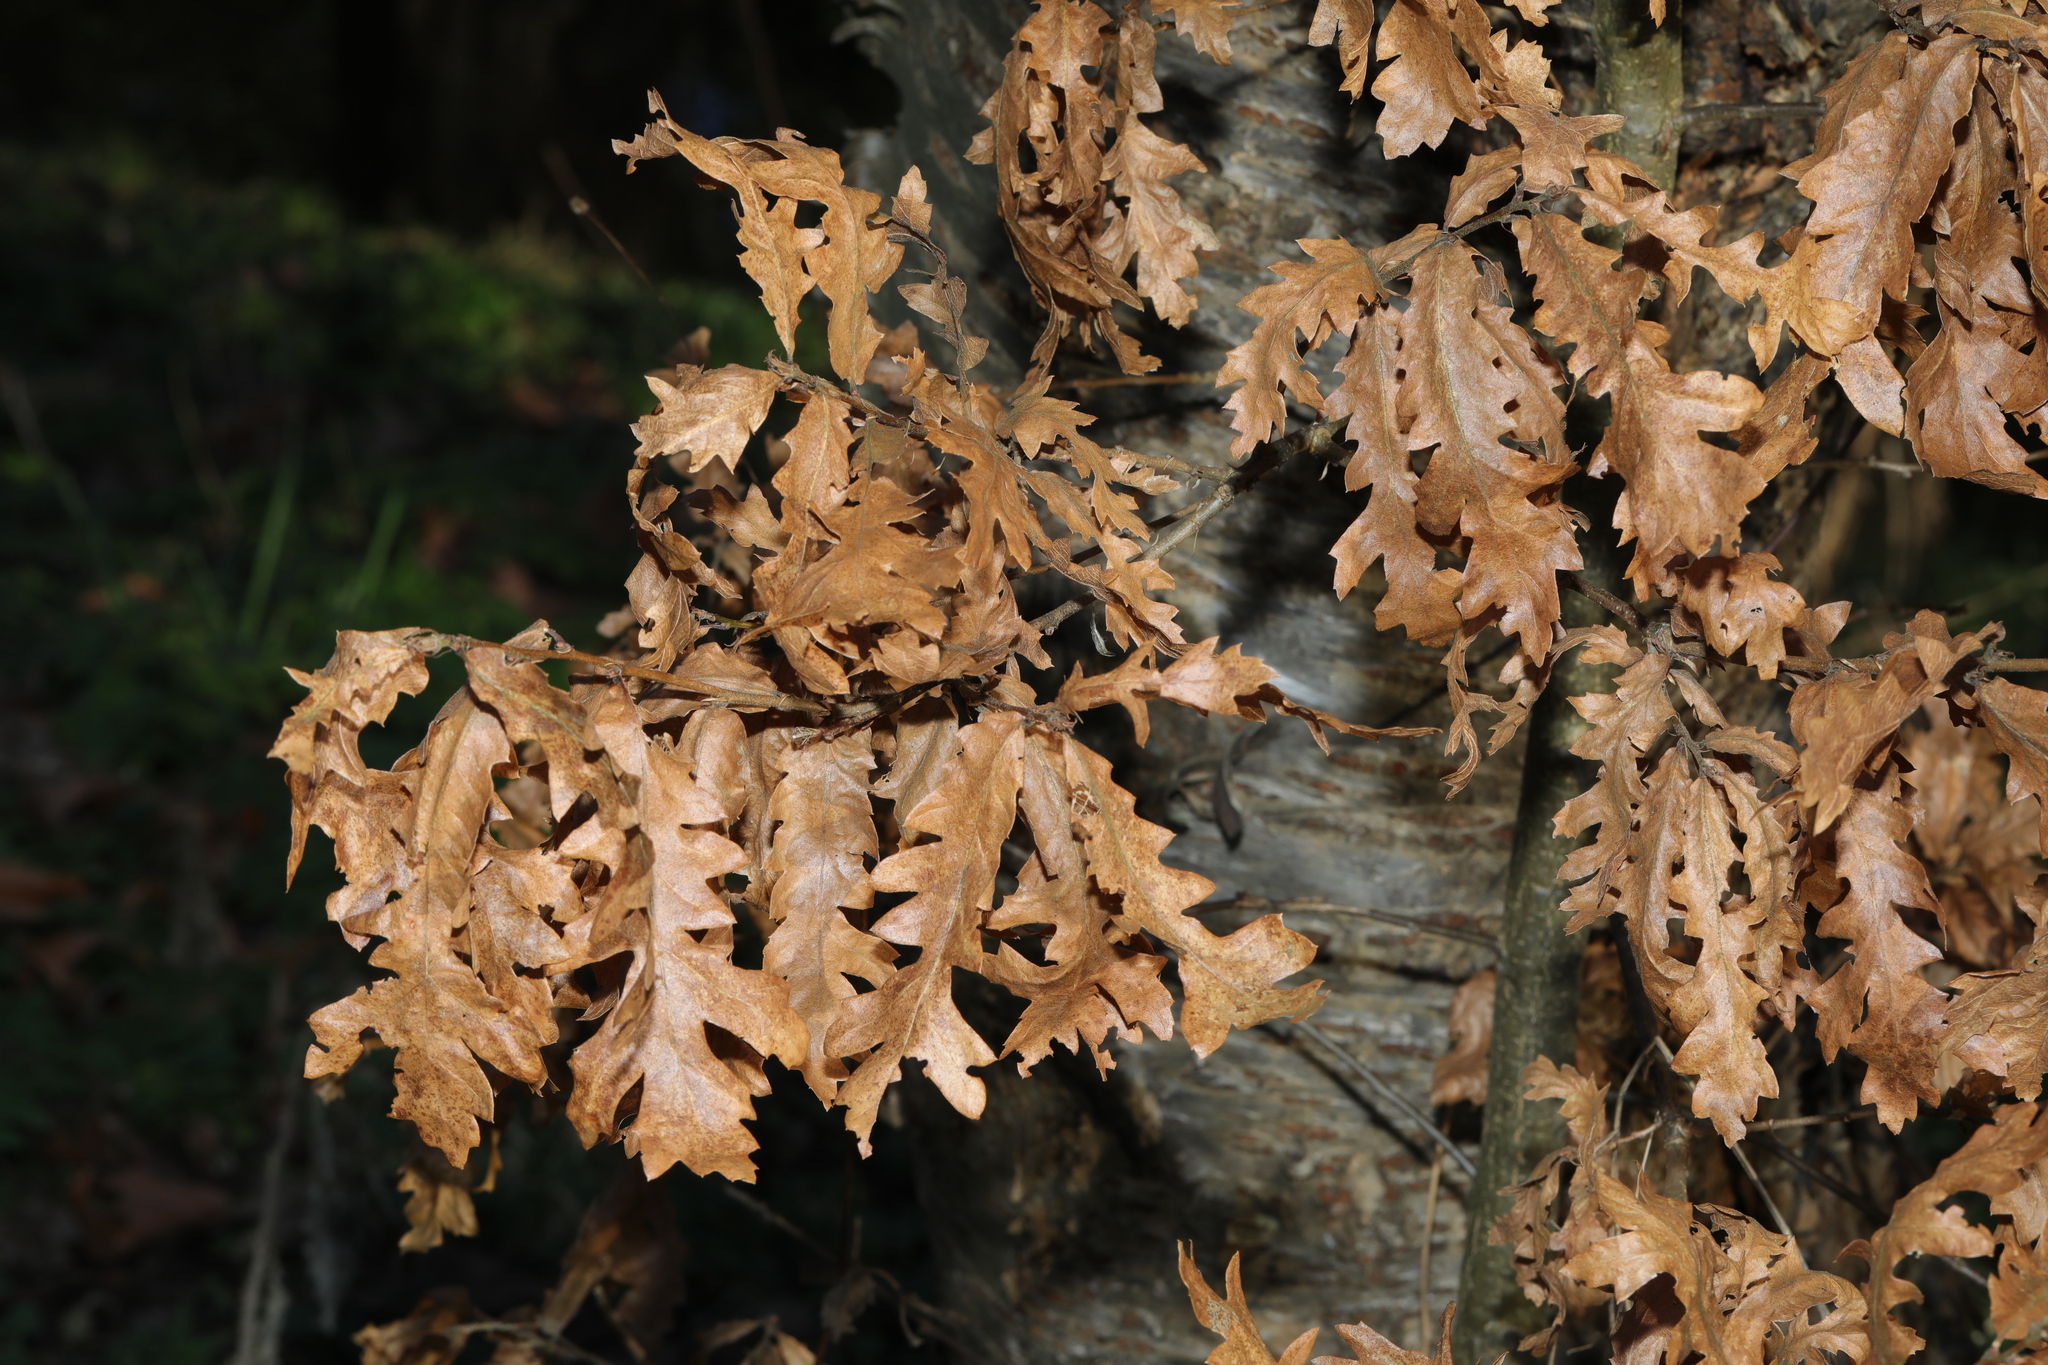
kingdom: Plantae
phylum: Tracheophyta
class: Magnoliopsida
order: Fagales
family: Fagaceae
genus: Quercus
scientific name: Quercus cerris
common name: Turkey oak
